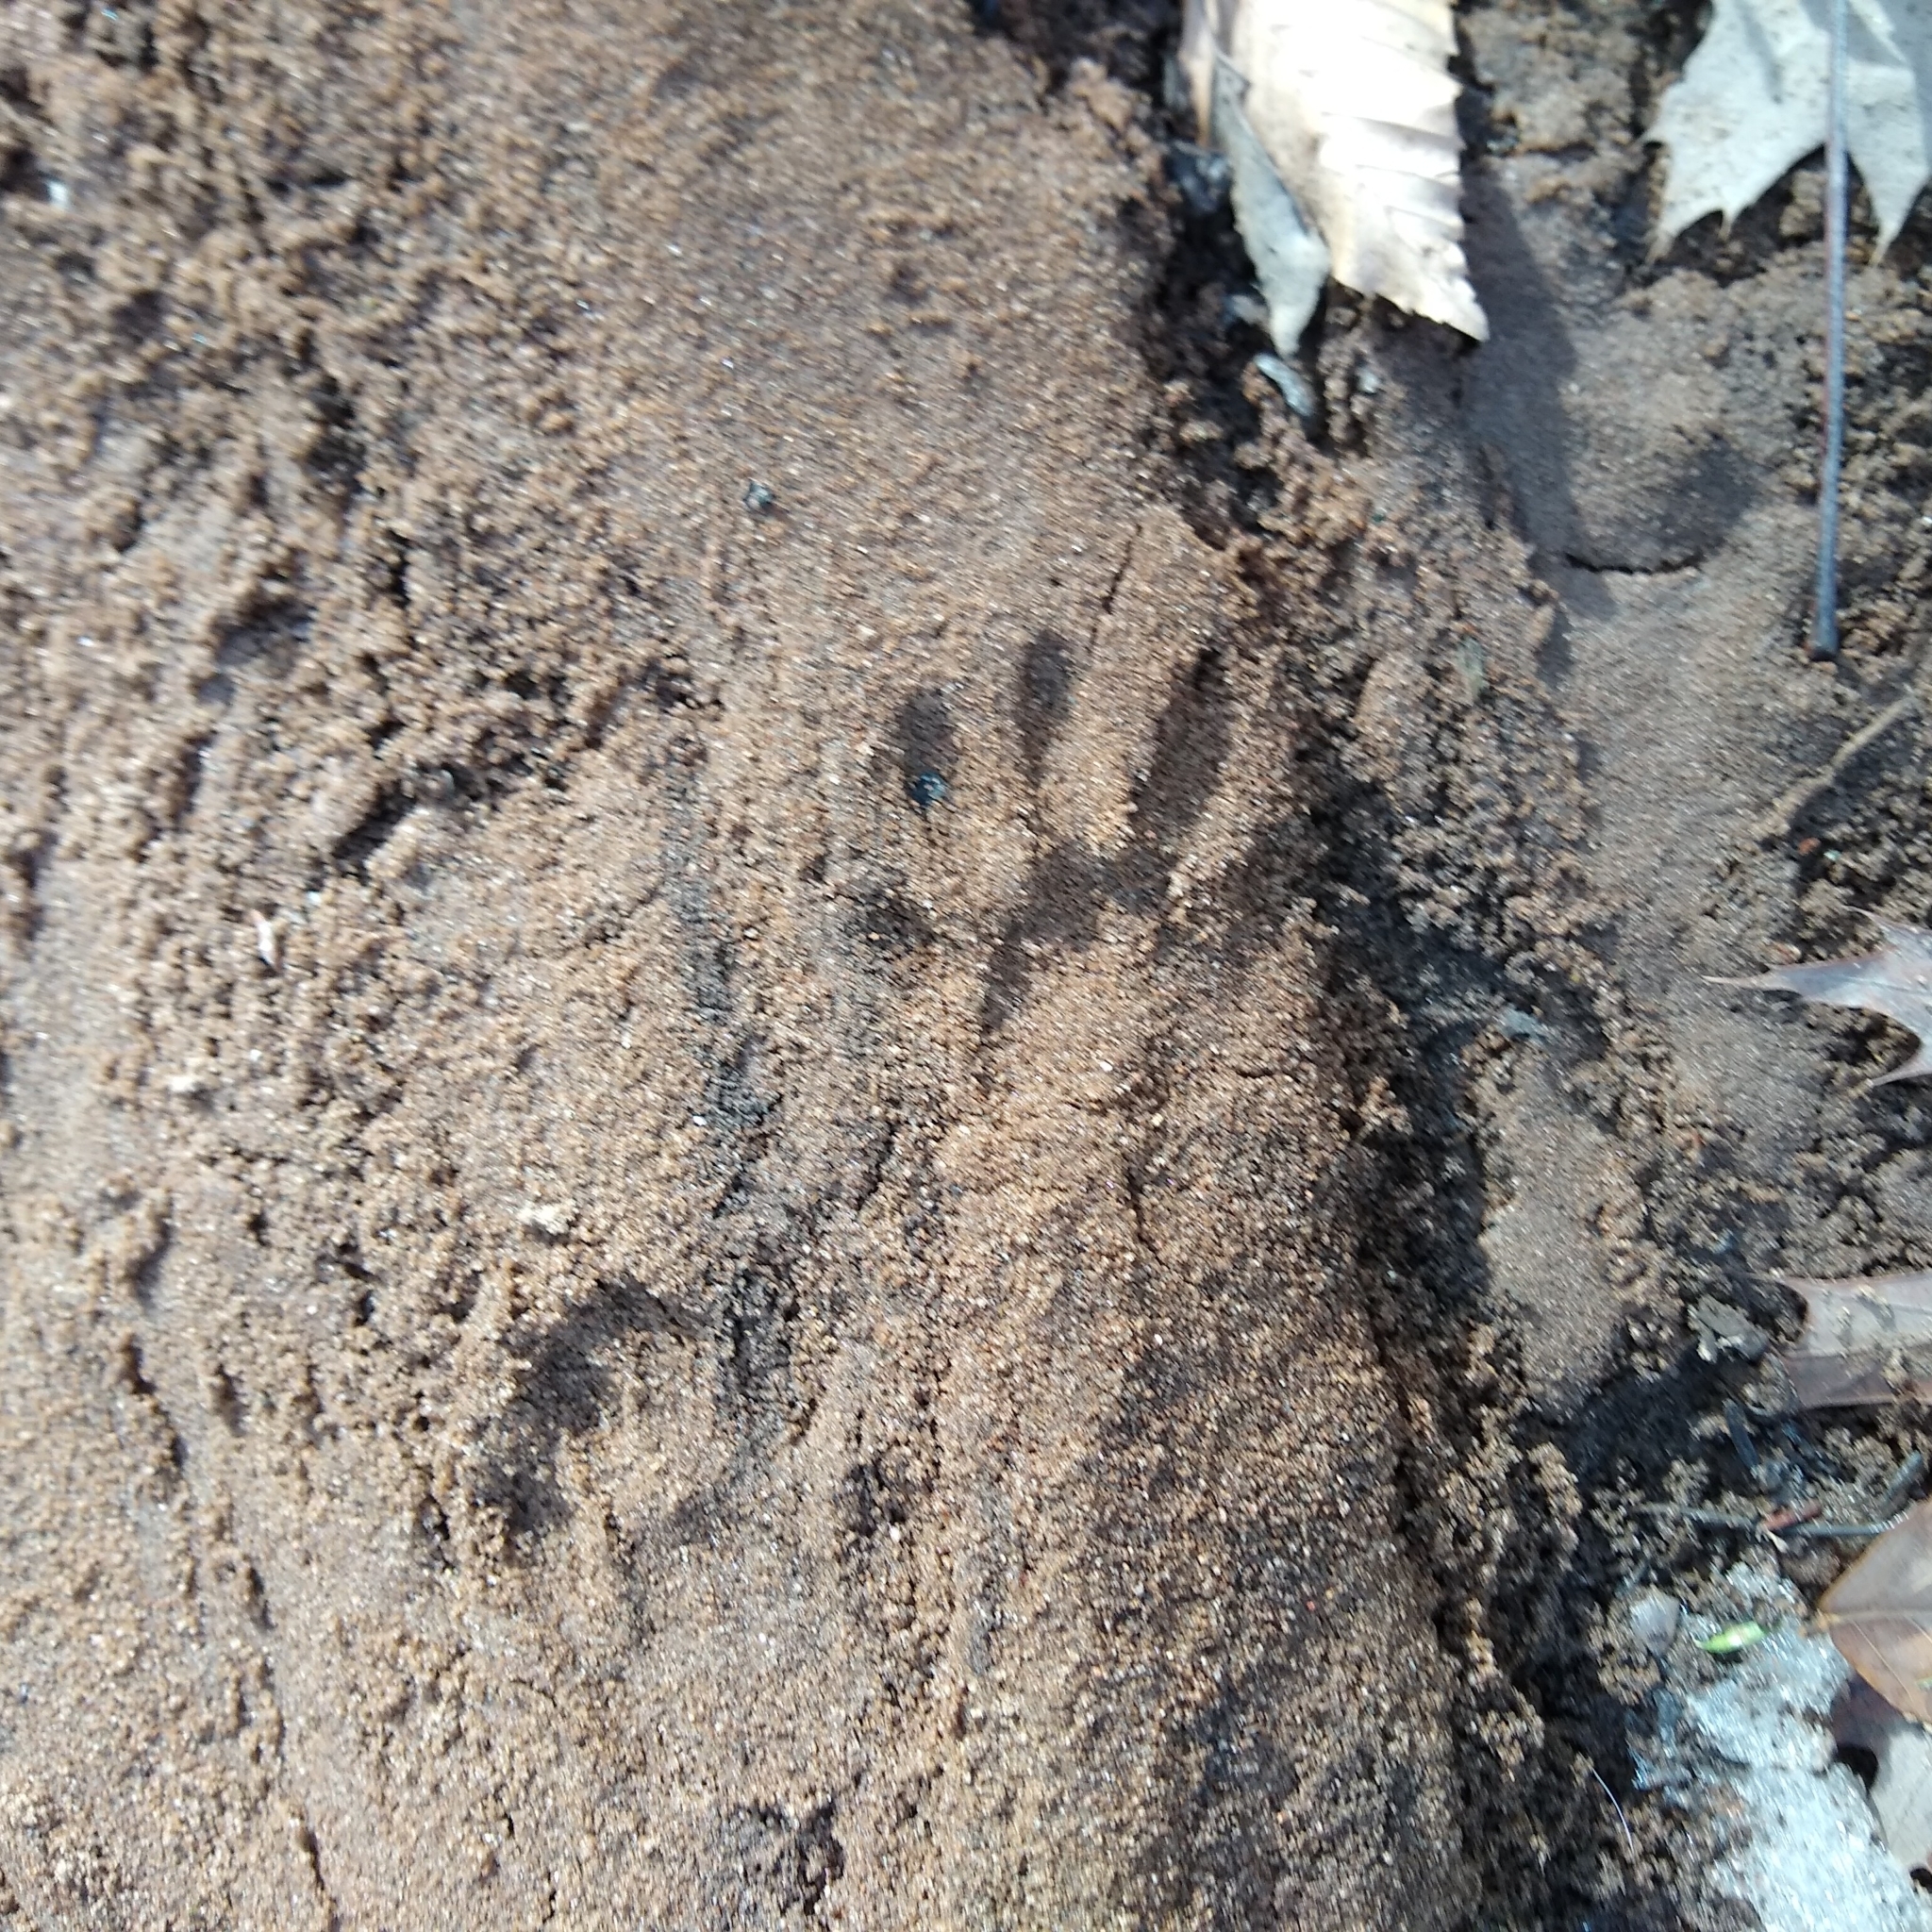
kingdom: Animalia
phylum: Chordata
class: Mammalia
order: Carnivora
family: Procyonidae
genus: Procyon
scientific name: Procyon lotor
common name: Raccoon
